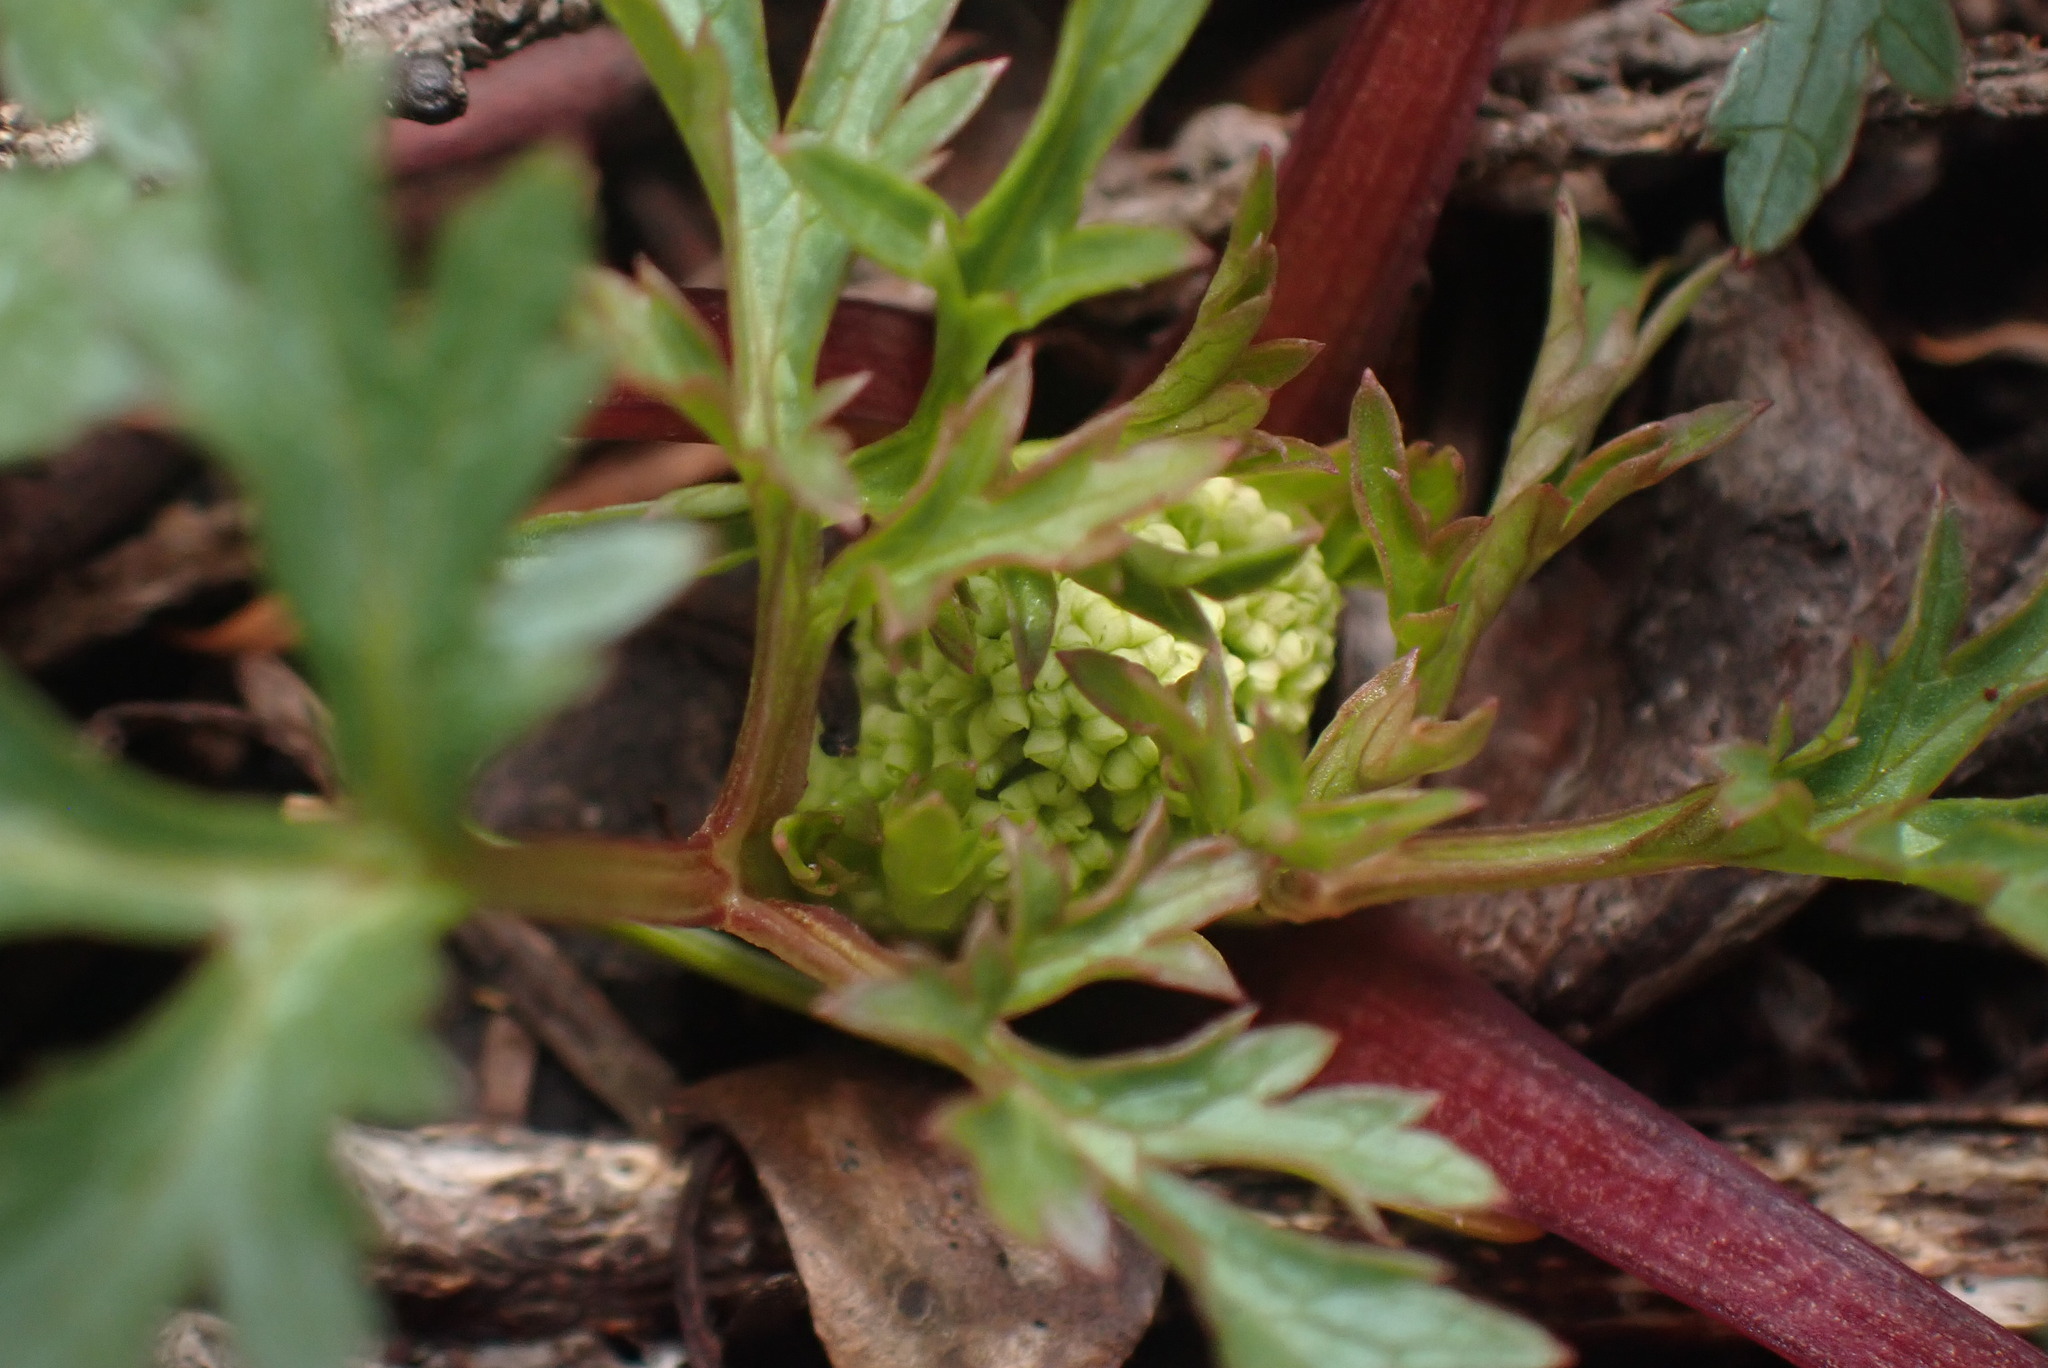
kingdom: Plantae
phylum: Tracheophyta
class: Magnoliopsida
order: Apiales
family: Apiaceae
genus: Sanicula
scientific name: Sanicula graveolens
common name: Sierra sanicle
